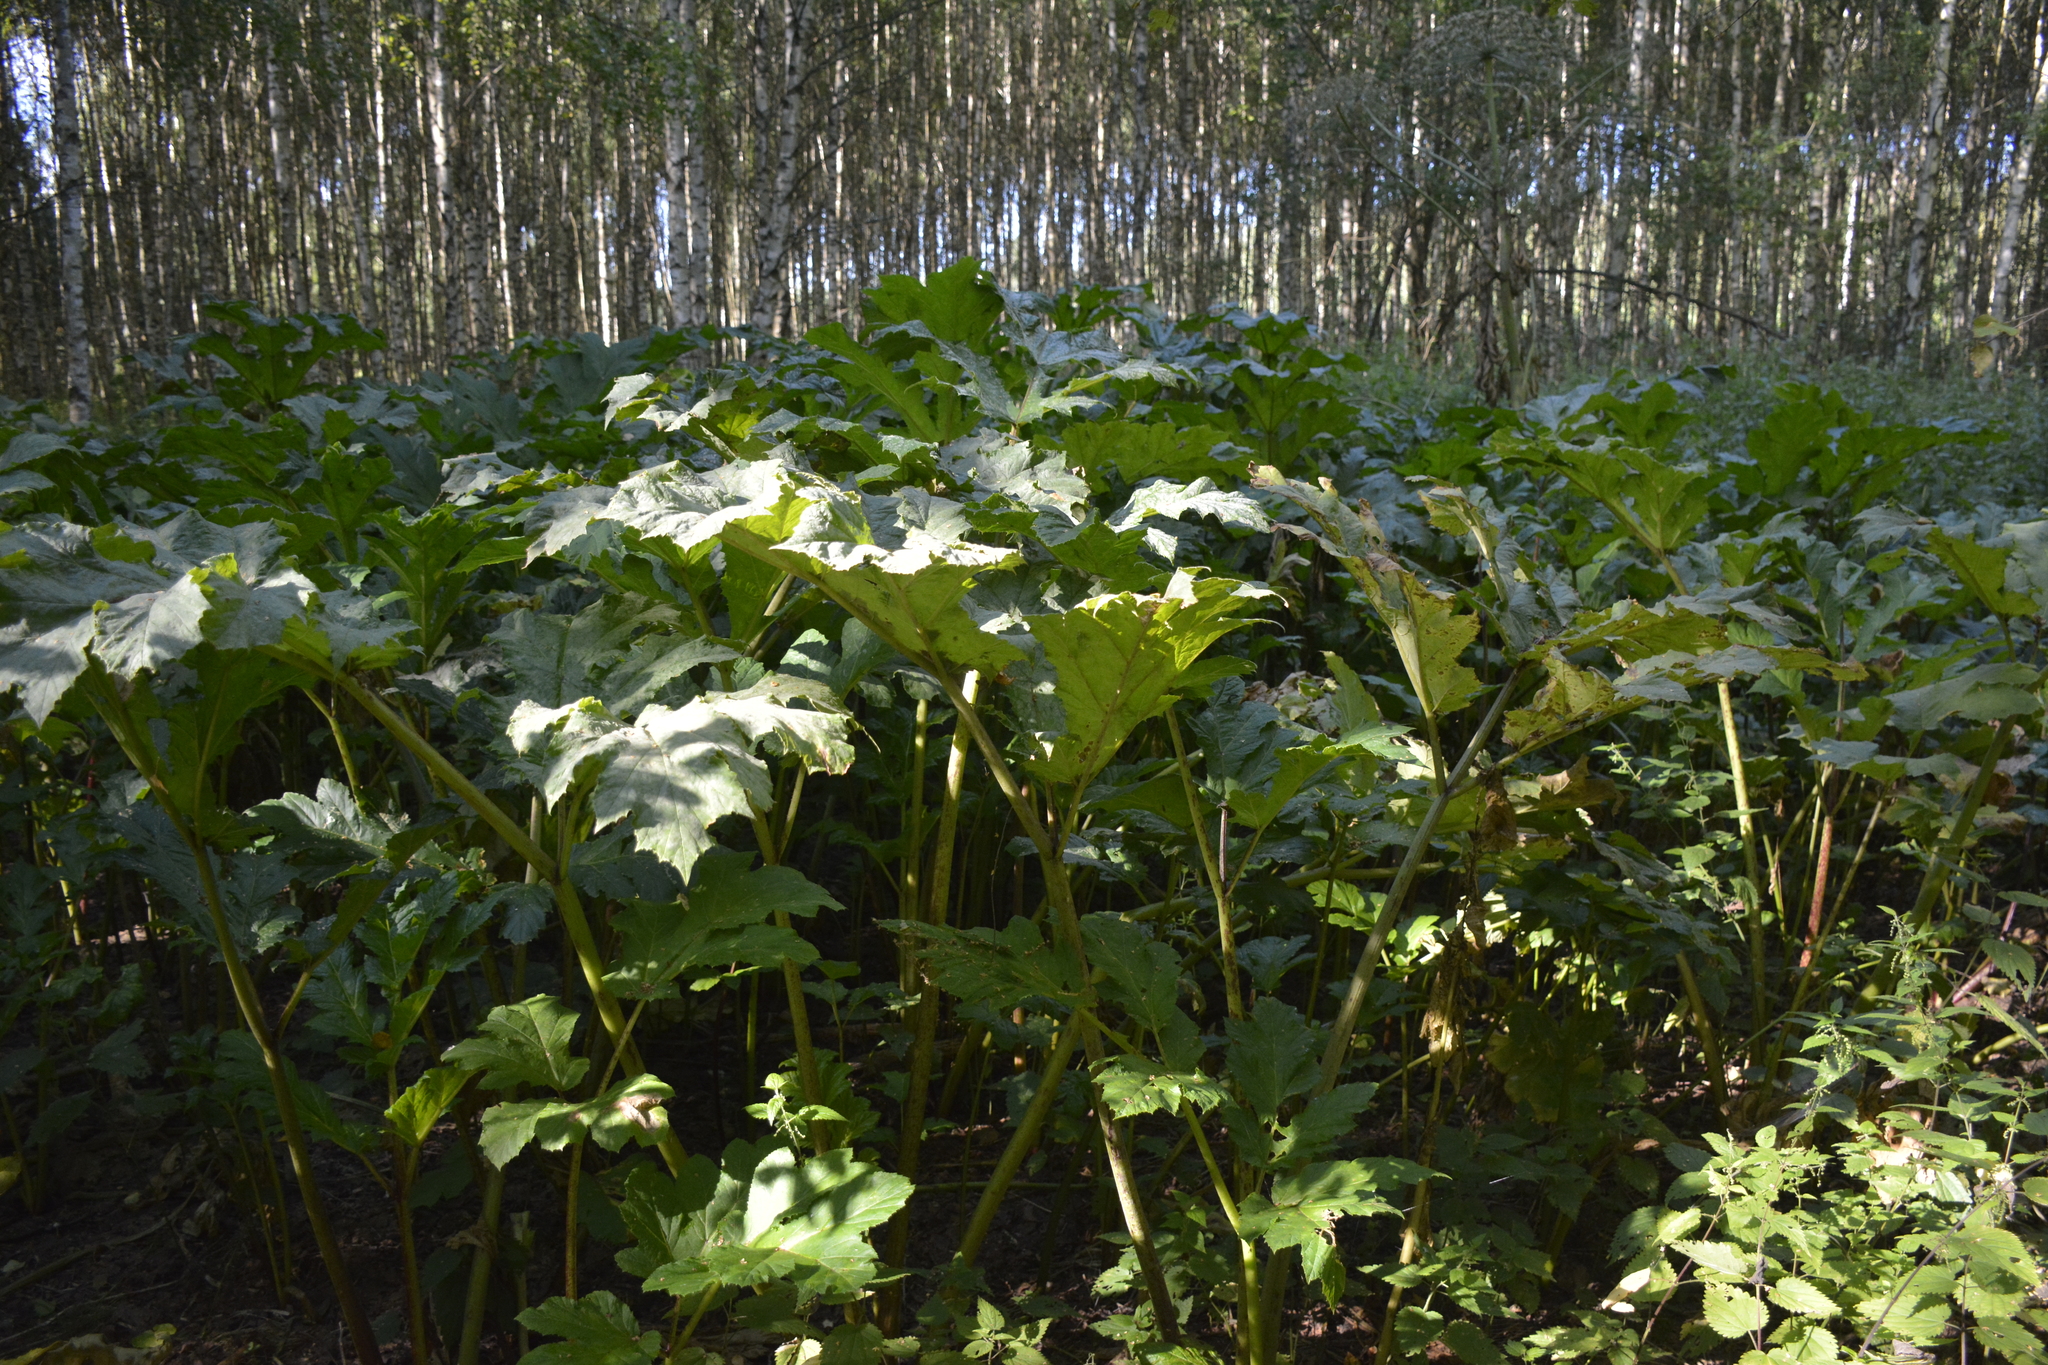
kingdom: Plantae
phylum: Tracheophyta
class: Magnoliopsida
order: Apiales
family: Apiaceae
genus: Heracleum
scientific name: Heracleum sosnowskyi
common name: Sosnowsky's hogweed
